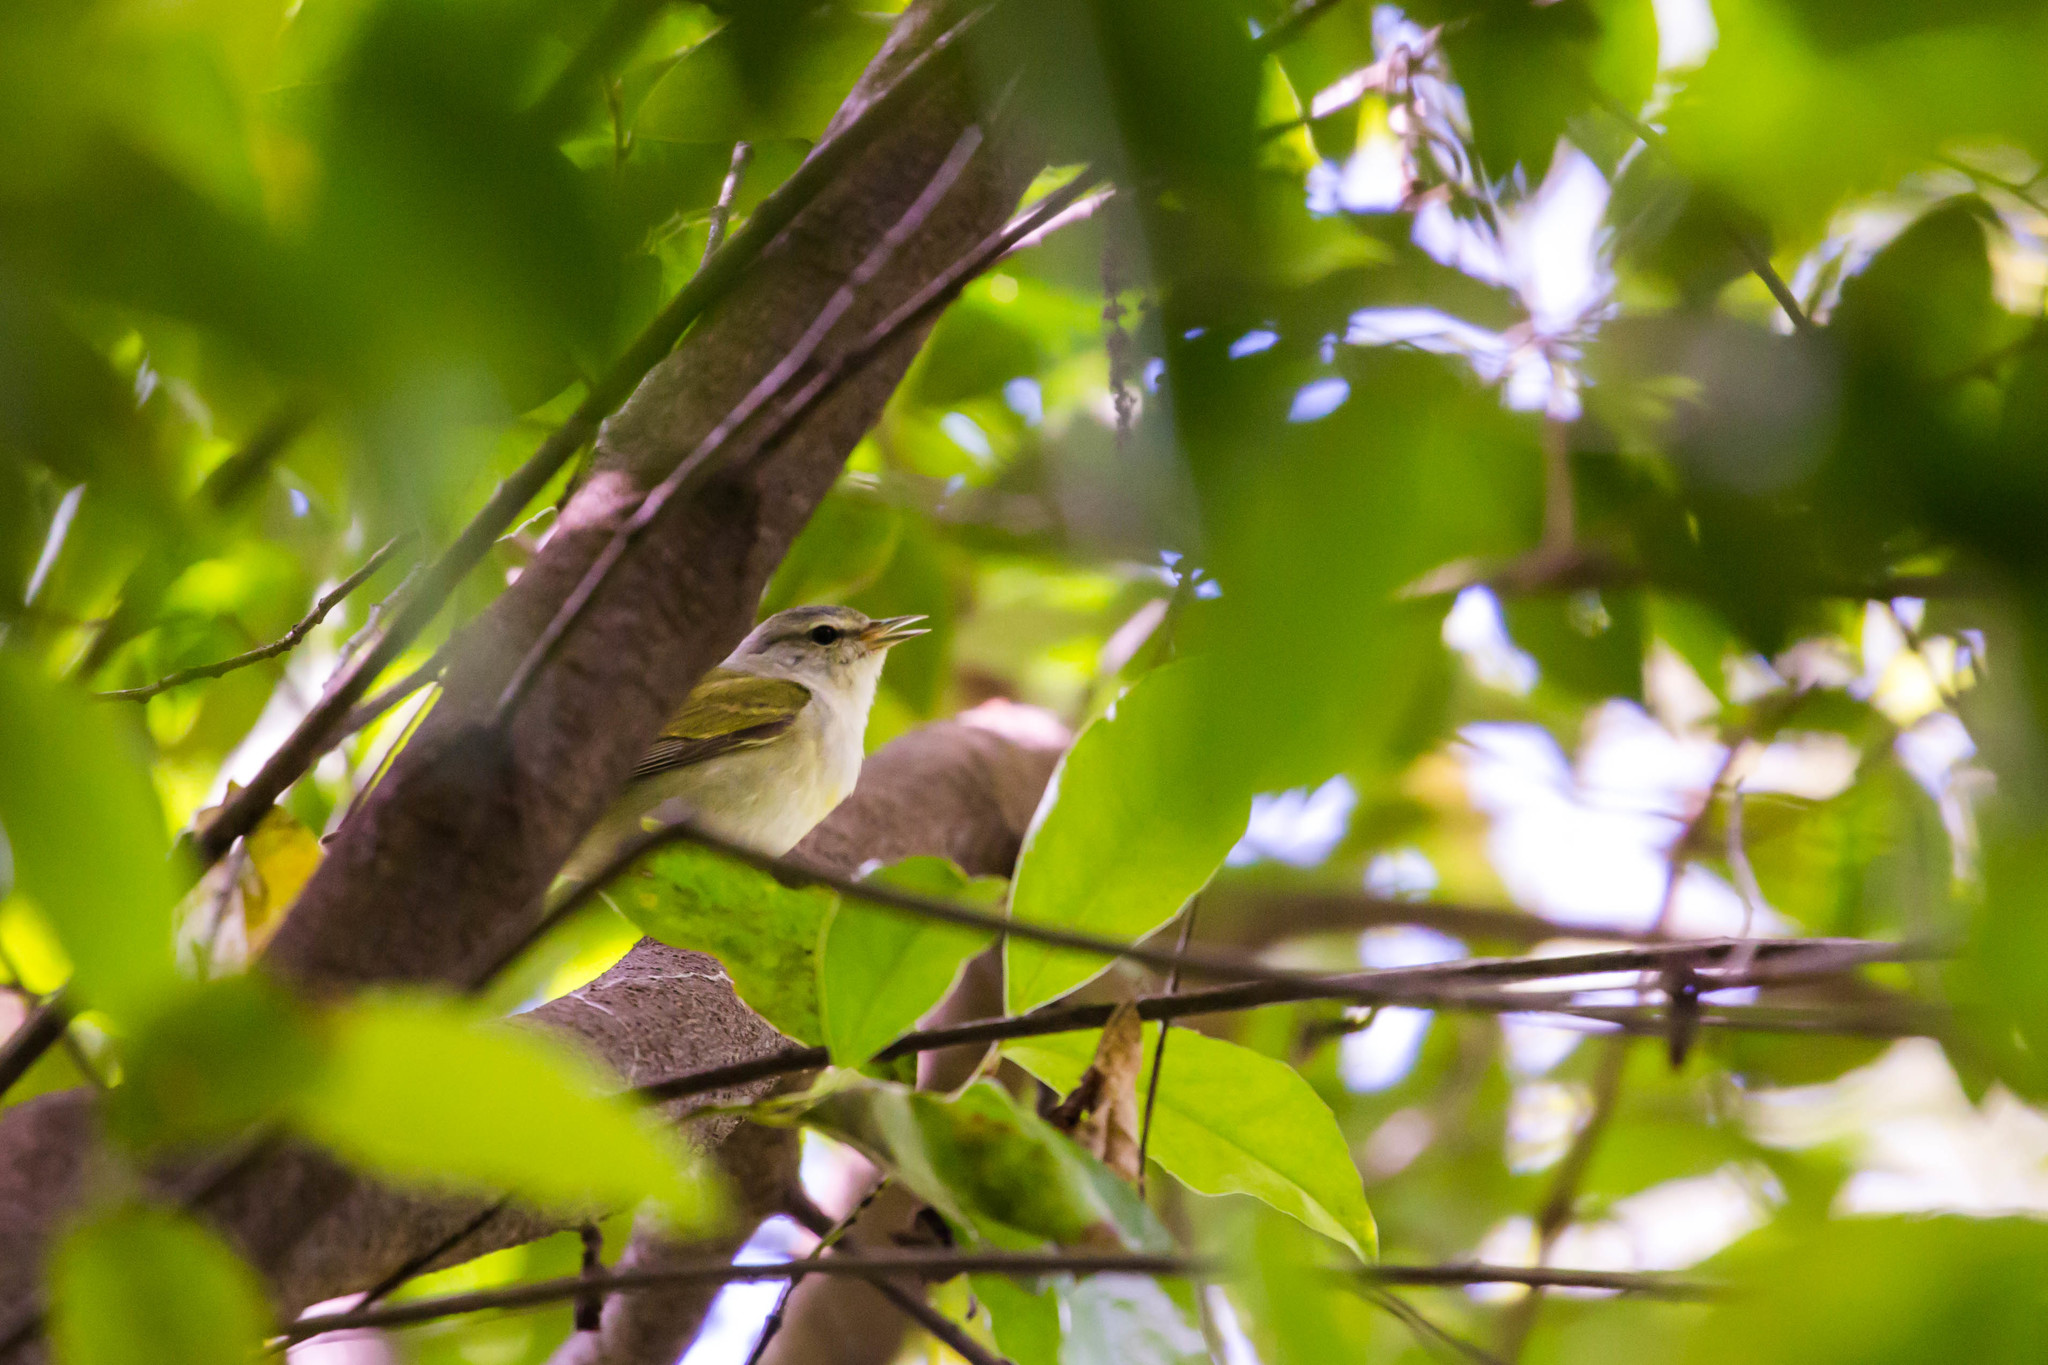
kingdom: Animalia
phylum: Chordata
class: Aves
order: Passeriformes
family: Parulidae
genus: Leiothlypis
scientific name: Leiothlypis peregrina
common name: Tennessee warbler
